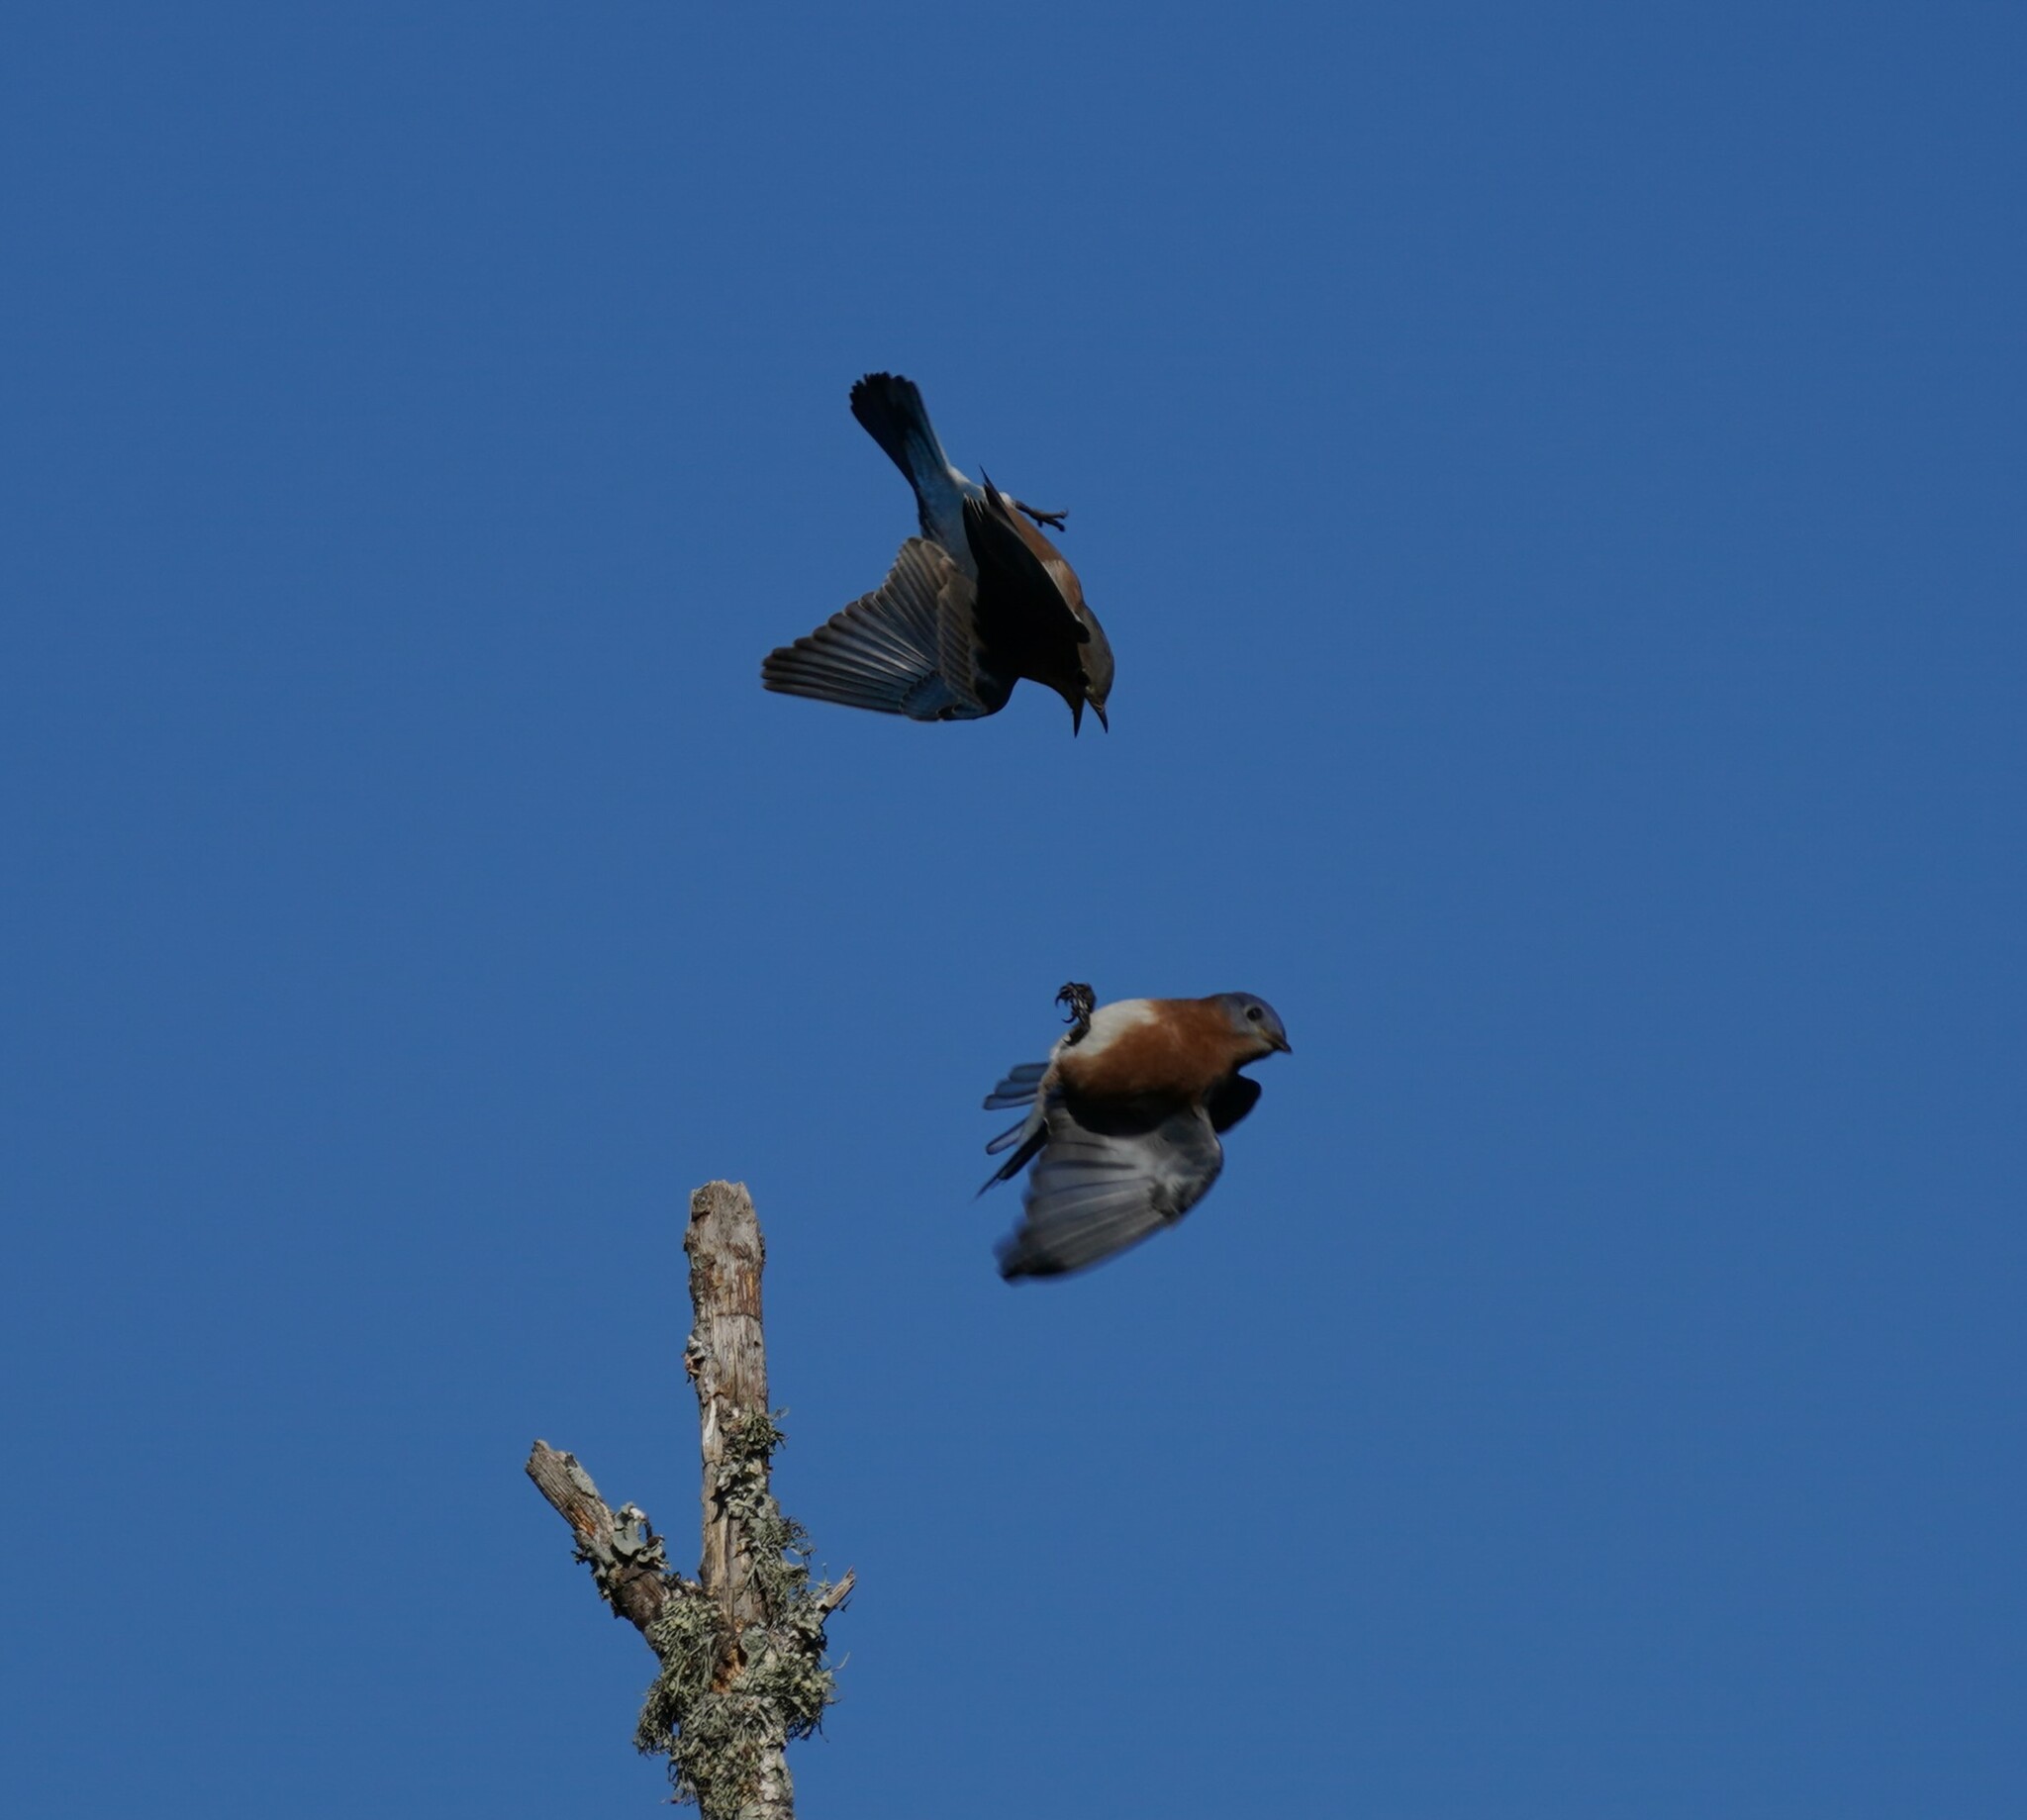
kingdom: Animalia
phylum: Chordata
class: Aves
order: Passeriformes
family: Turdidae
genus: Sialia
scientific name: Sialia sialis
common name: Eastern bluebird
